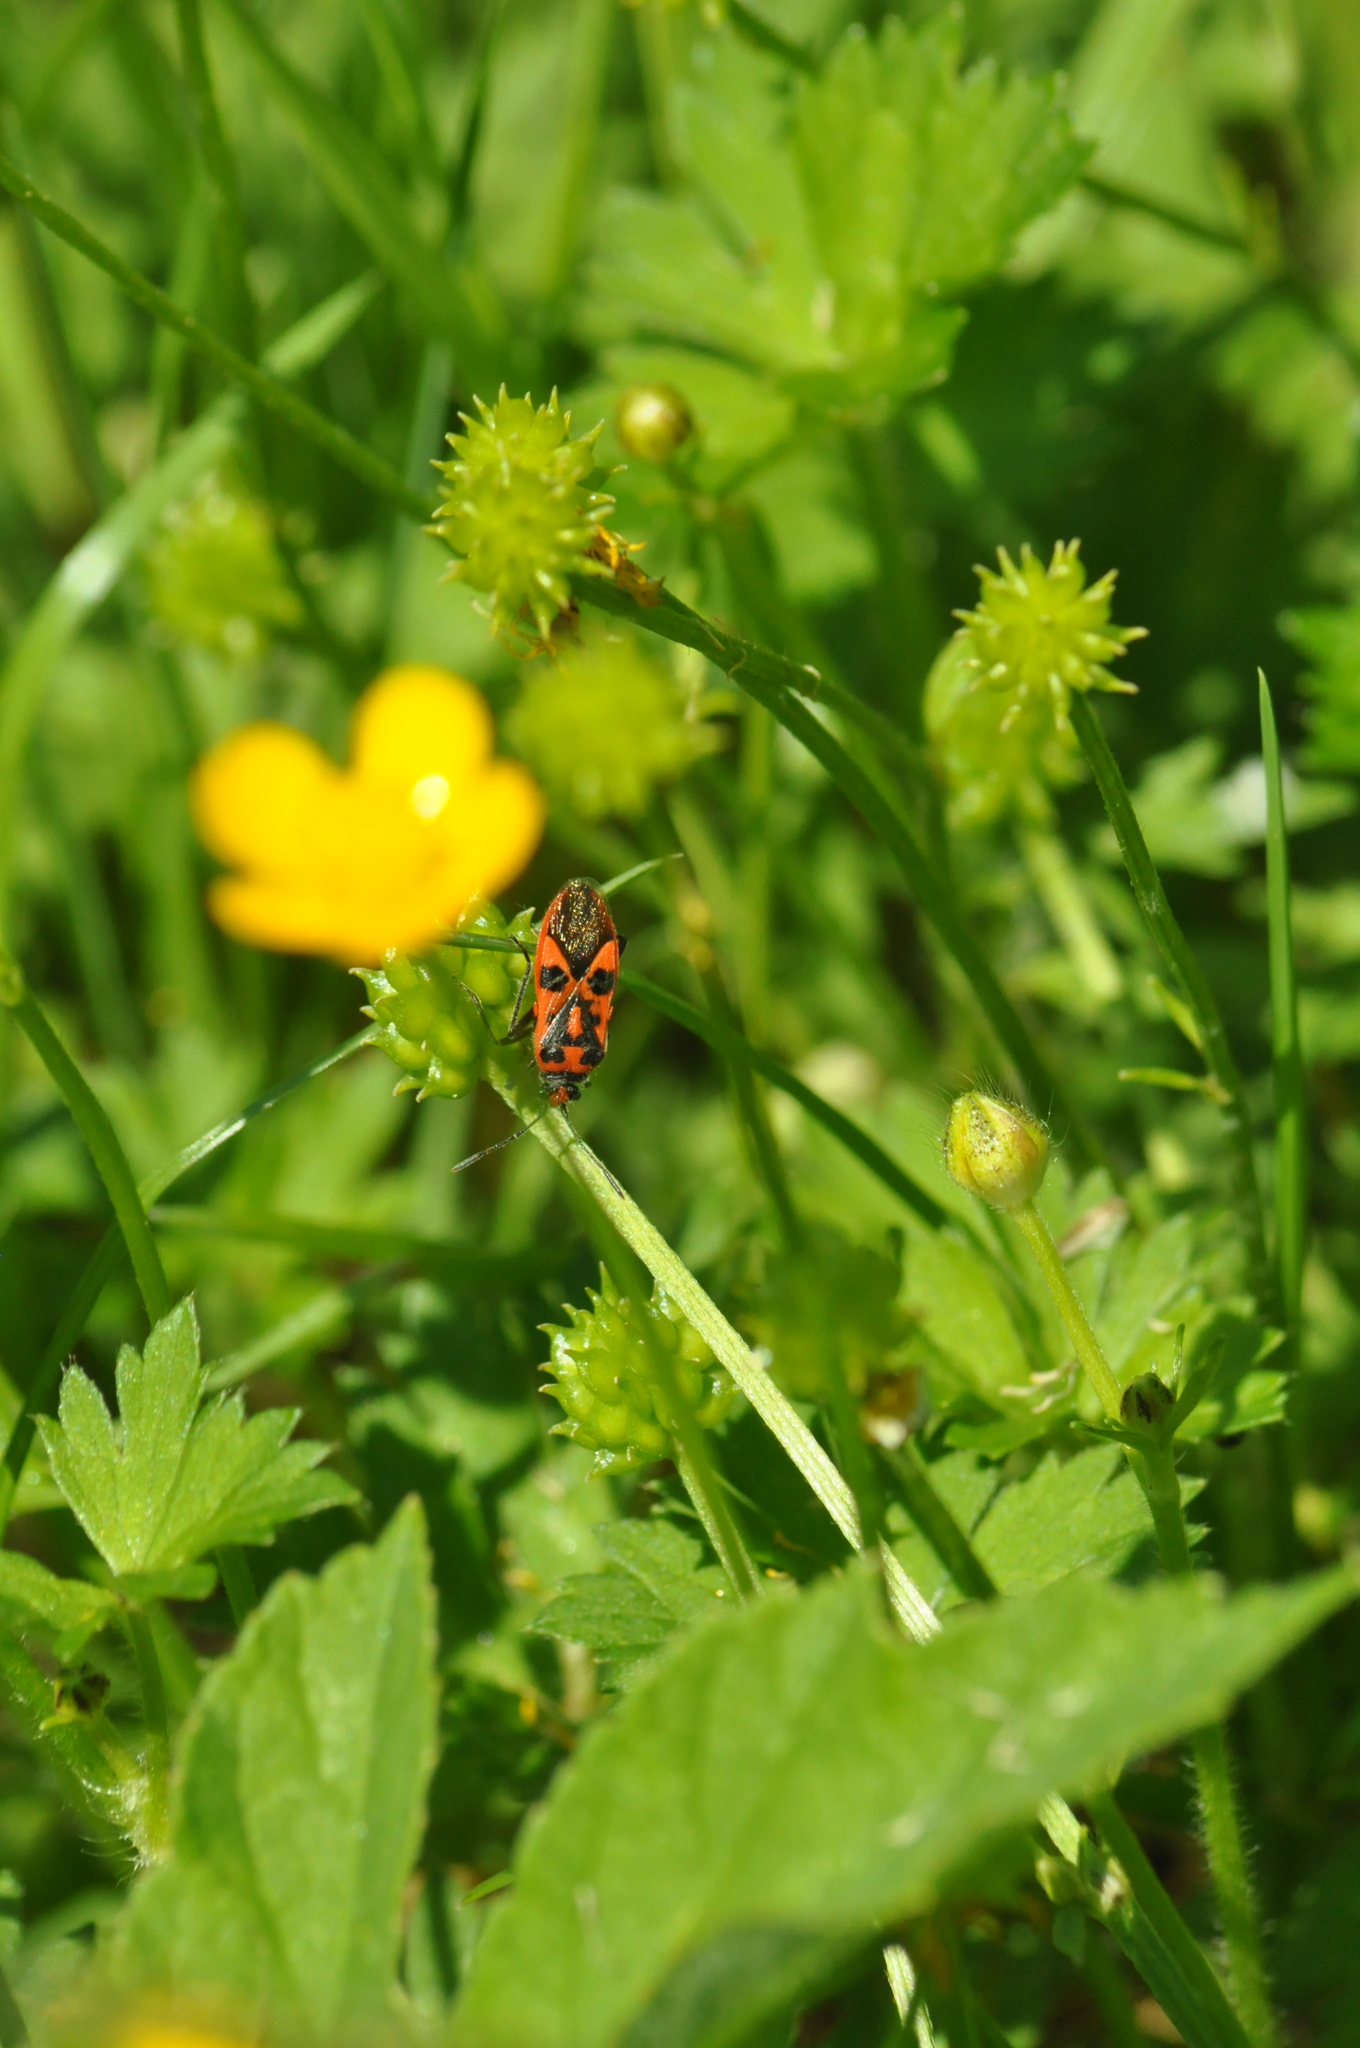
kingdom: Animalia
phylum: Arthropoda
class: Insecta
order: Hemiptera
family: Rhopalidae
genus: Corizus
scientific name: Corizus hyoscyami
